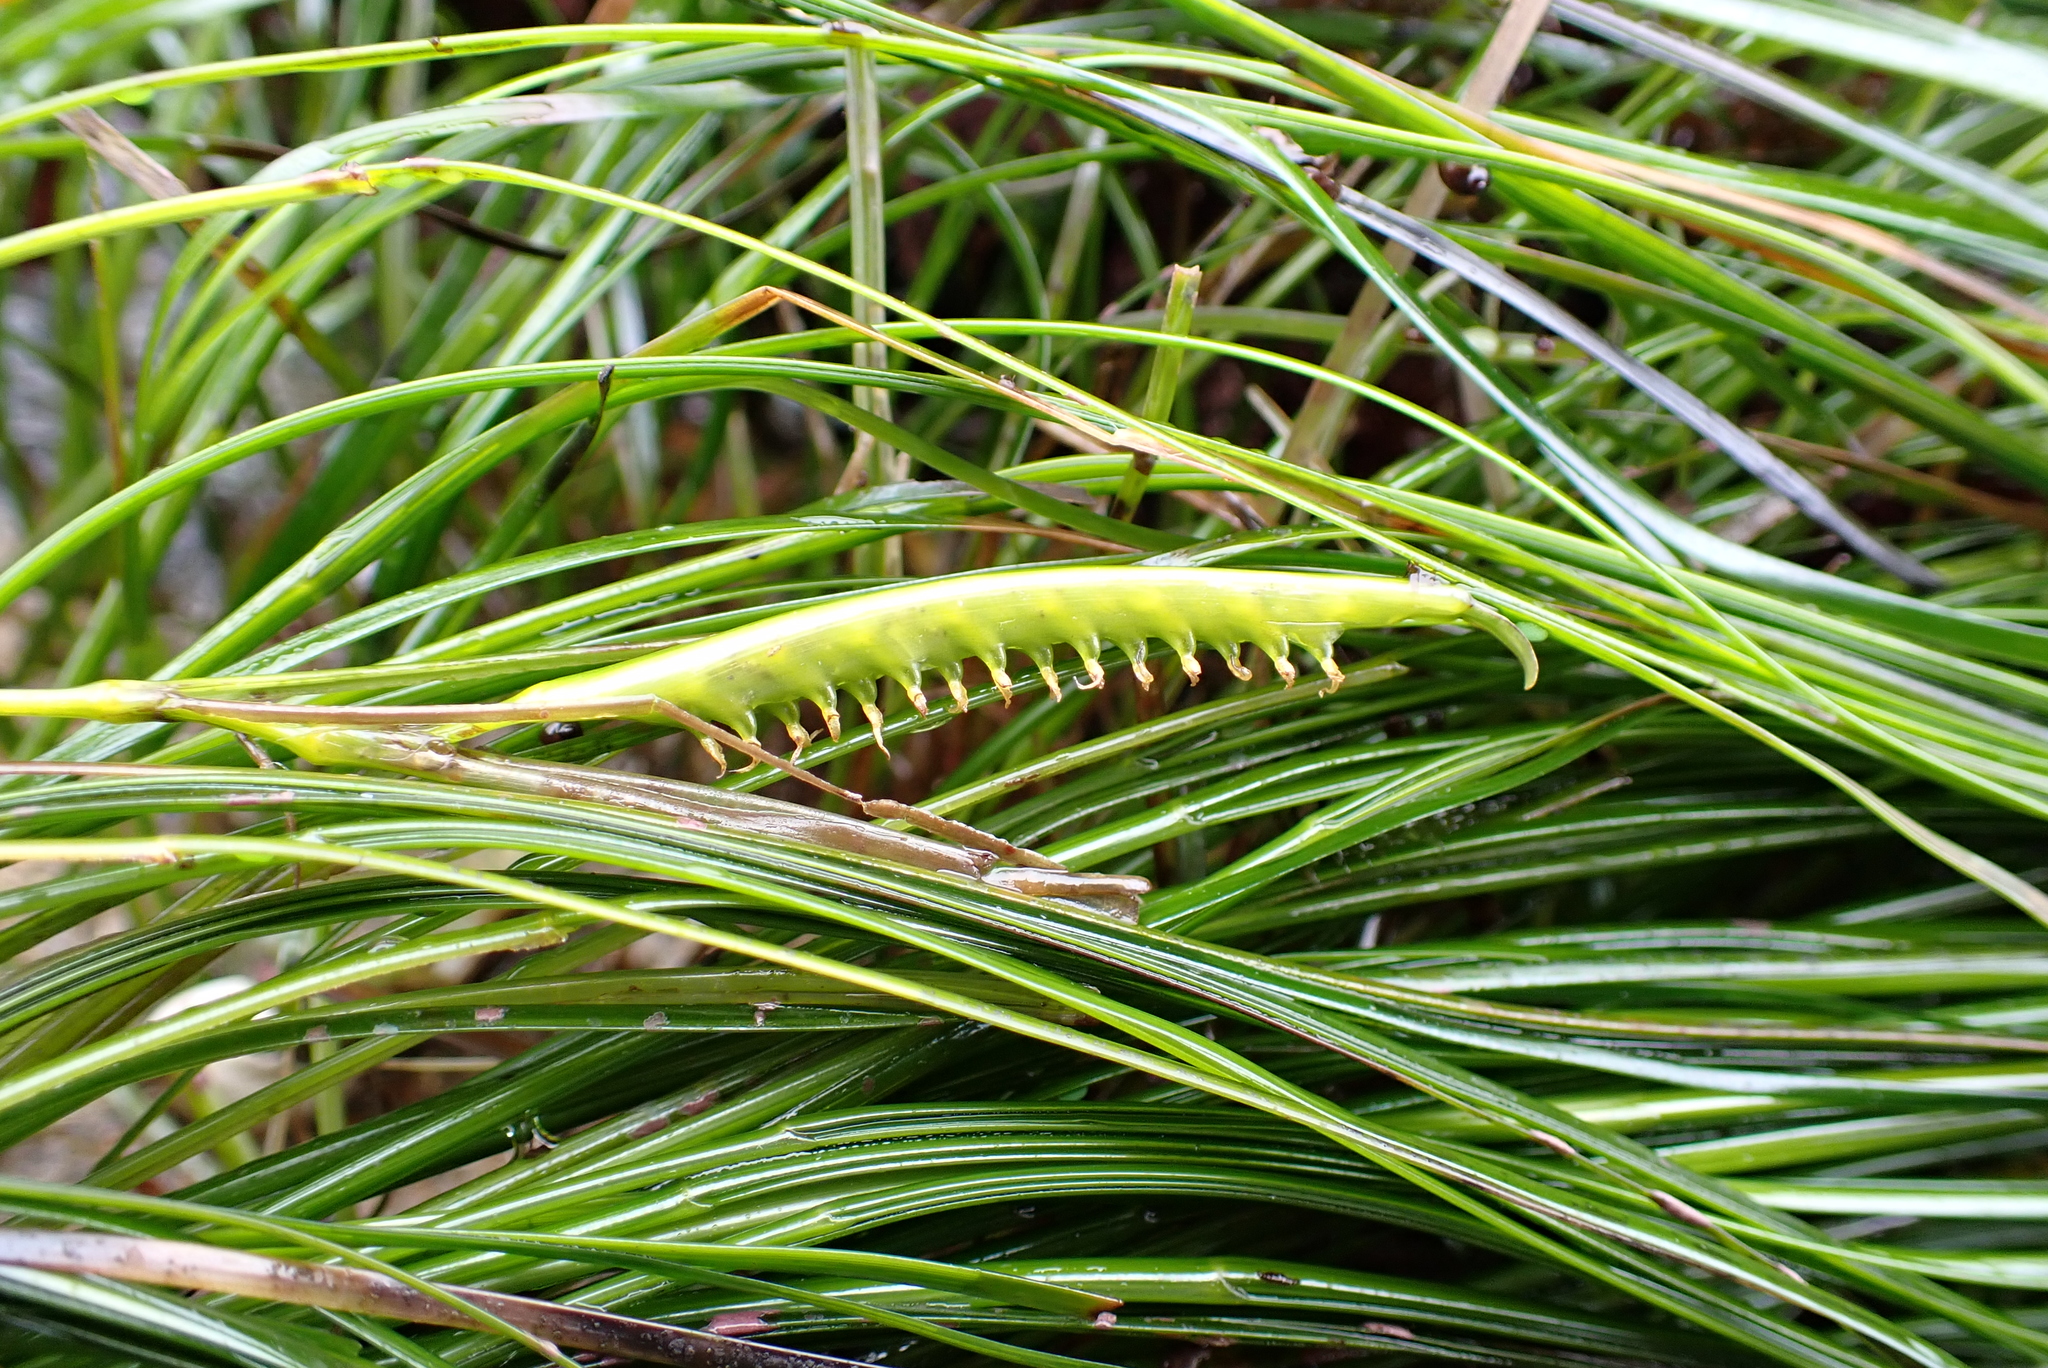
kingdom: Plantae
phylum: Tracheophyta
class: Liliopsida
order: Alismatales
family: Zosteraceae
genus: Phyllospadix
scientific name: Phyllospadix torreyi
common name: Surfgrass
